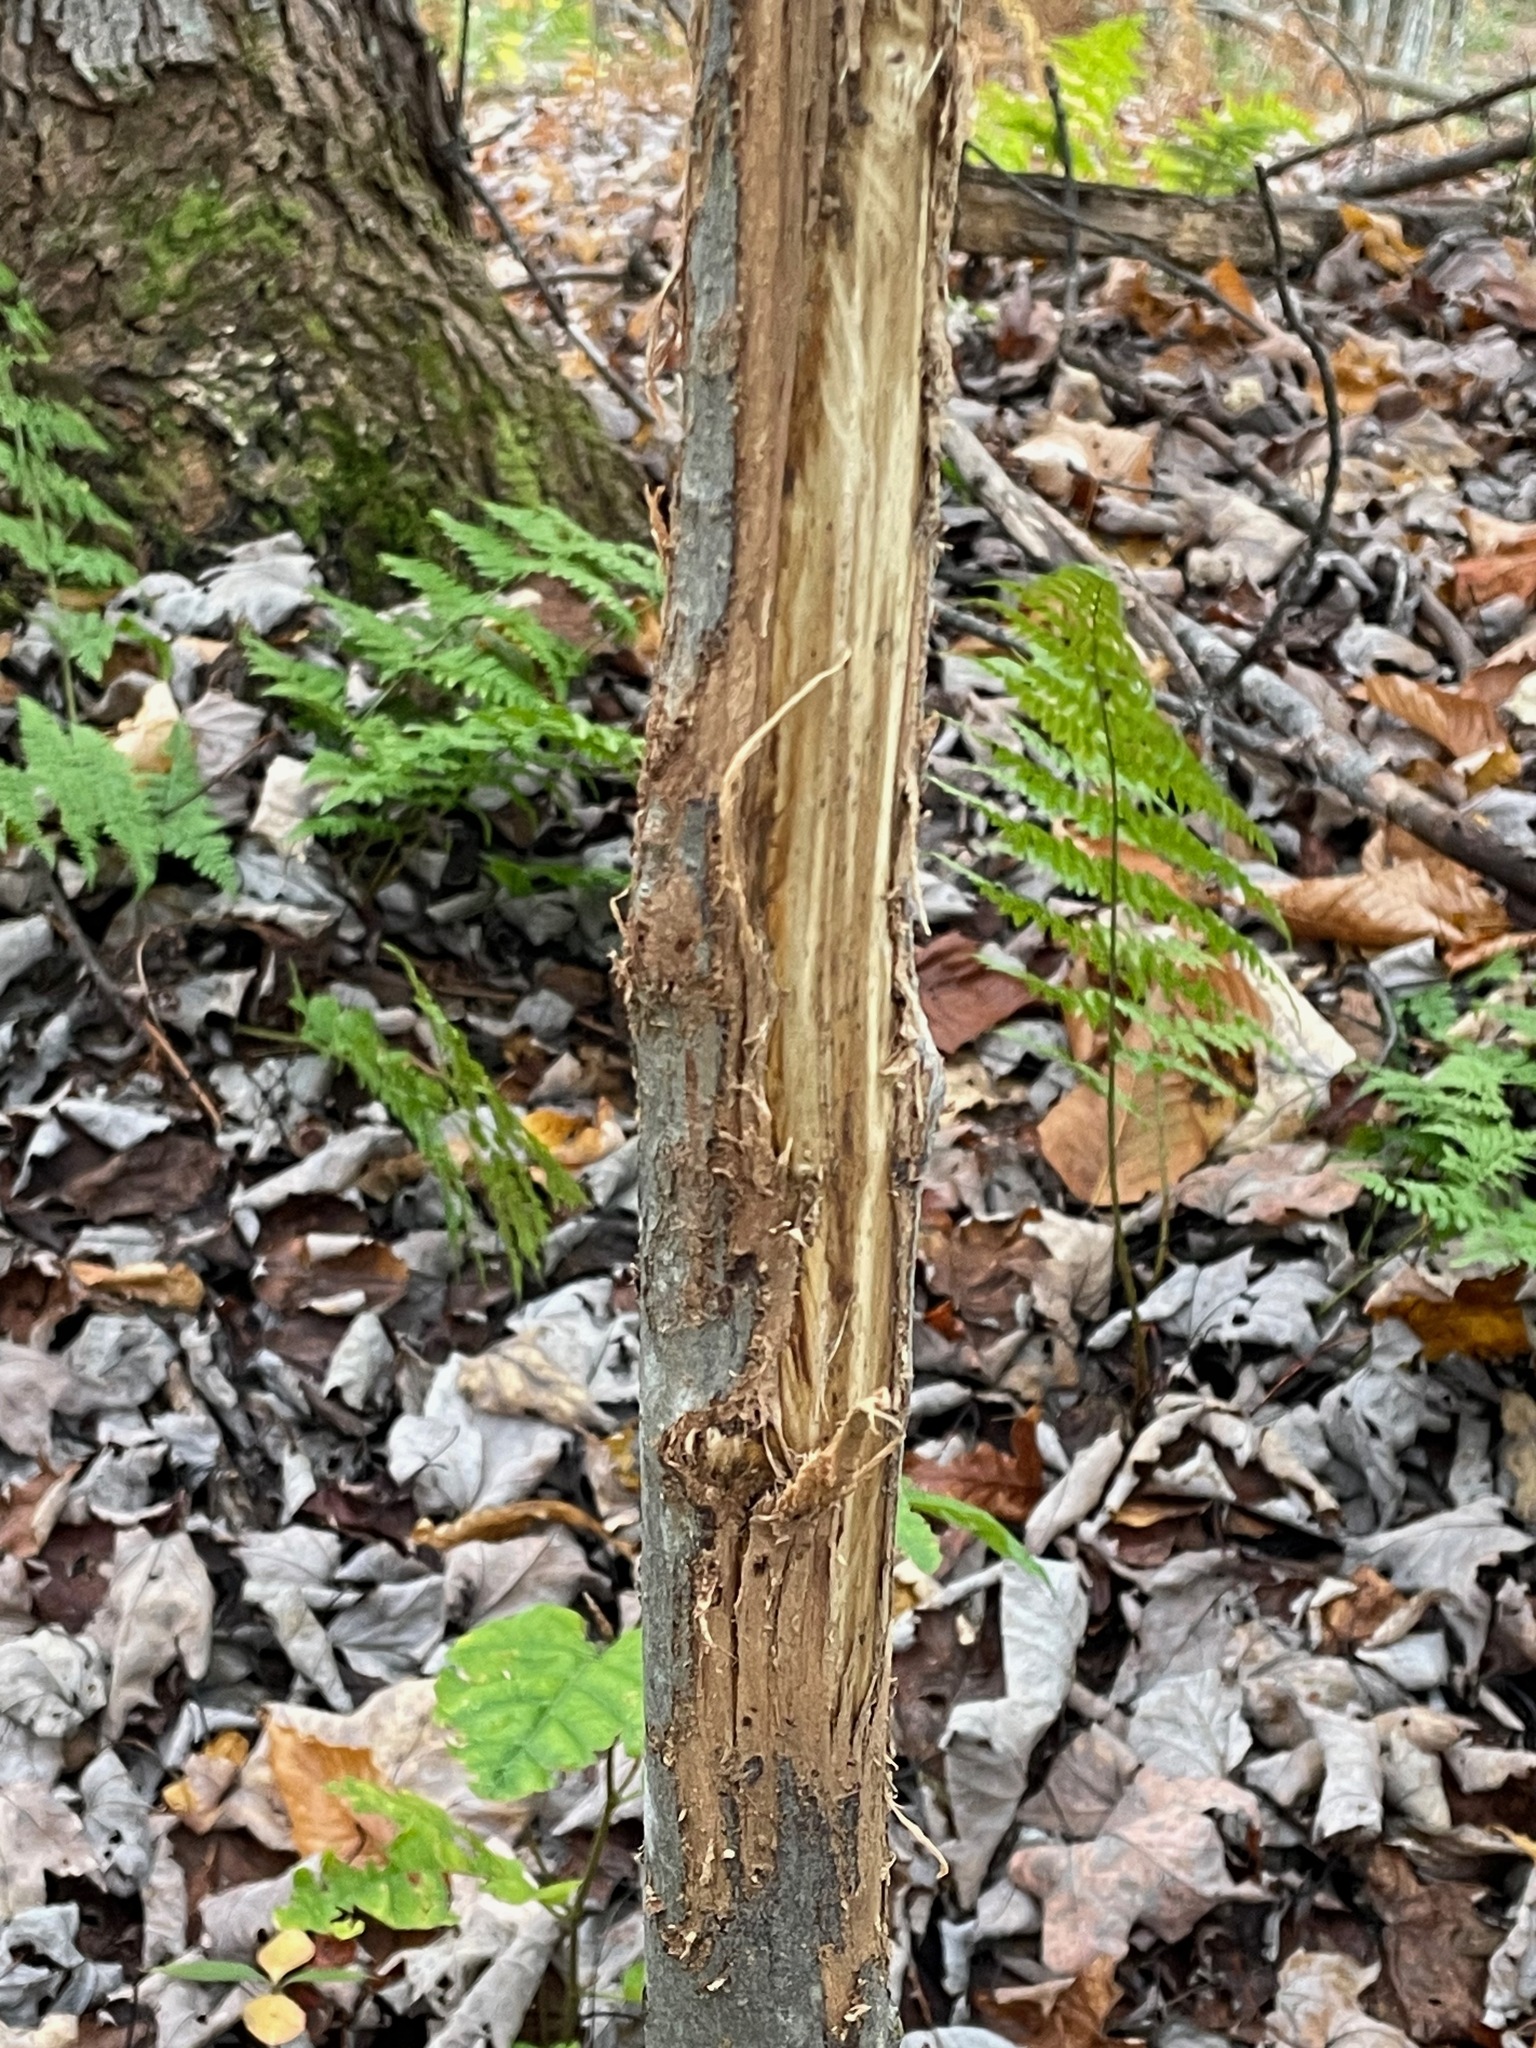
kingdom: Animalia
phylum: Chordata
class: Mammalia
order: Artiodactyla
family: Cervidae
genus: Odocoileus
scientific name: Odocoileus virginianus
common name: White-tailed deer
